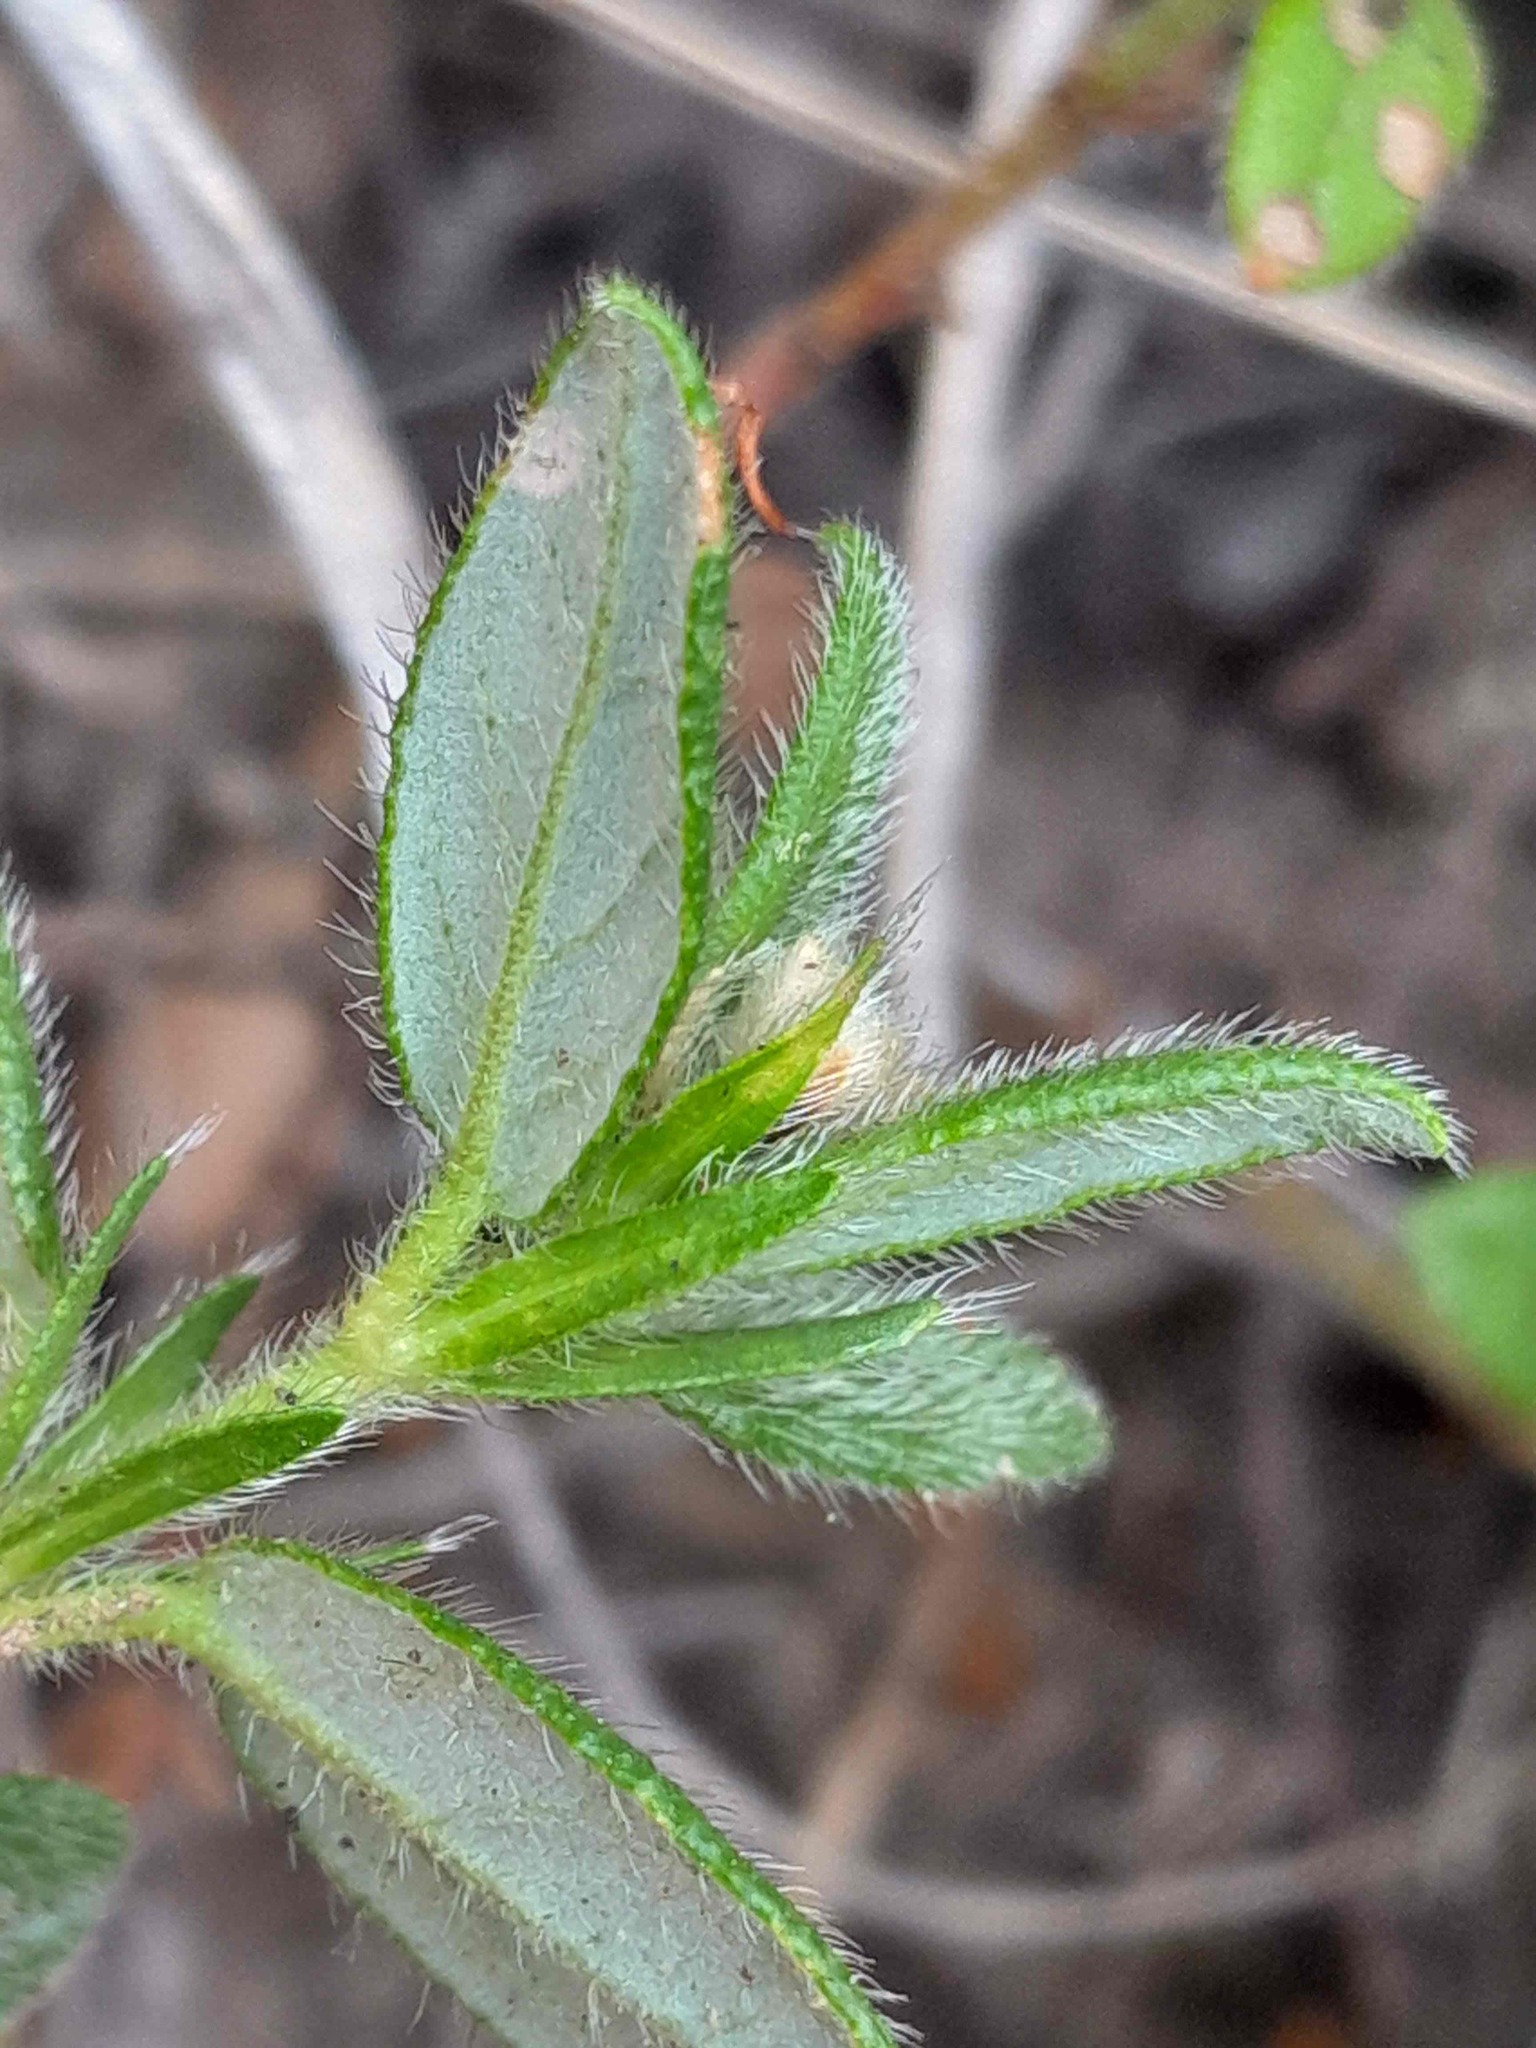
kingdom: Plantae
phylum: Tracheophyta
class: Magnoliopsida
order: Malvales
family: Cistaceae
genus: Helianthemum
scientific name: Helianthemum nummularium
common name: Common rock-rose
